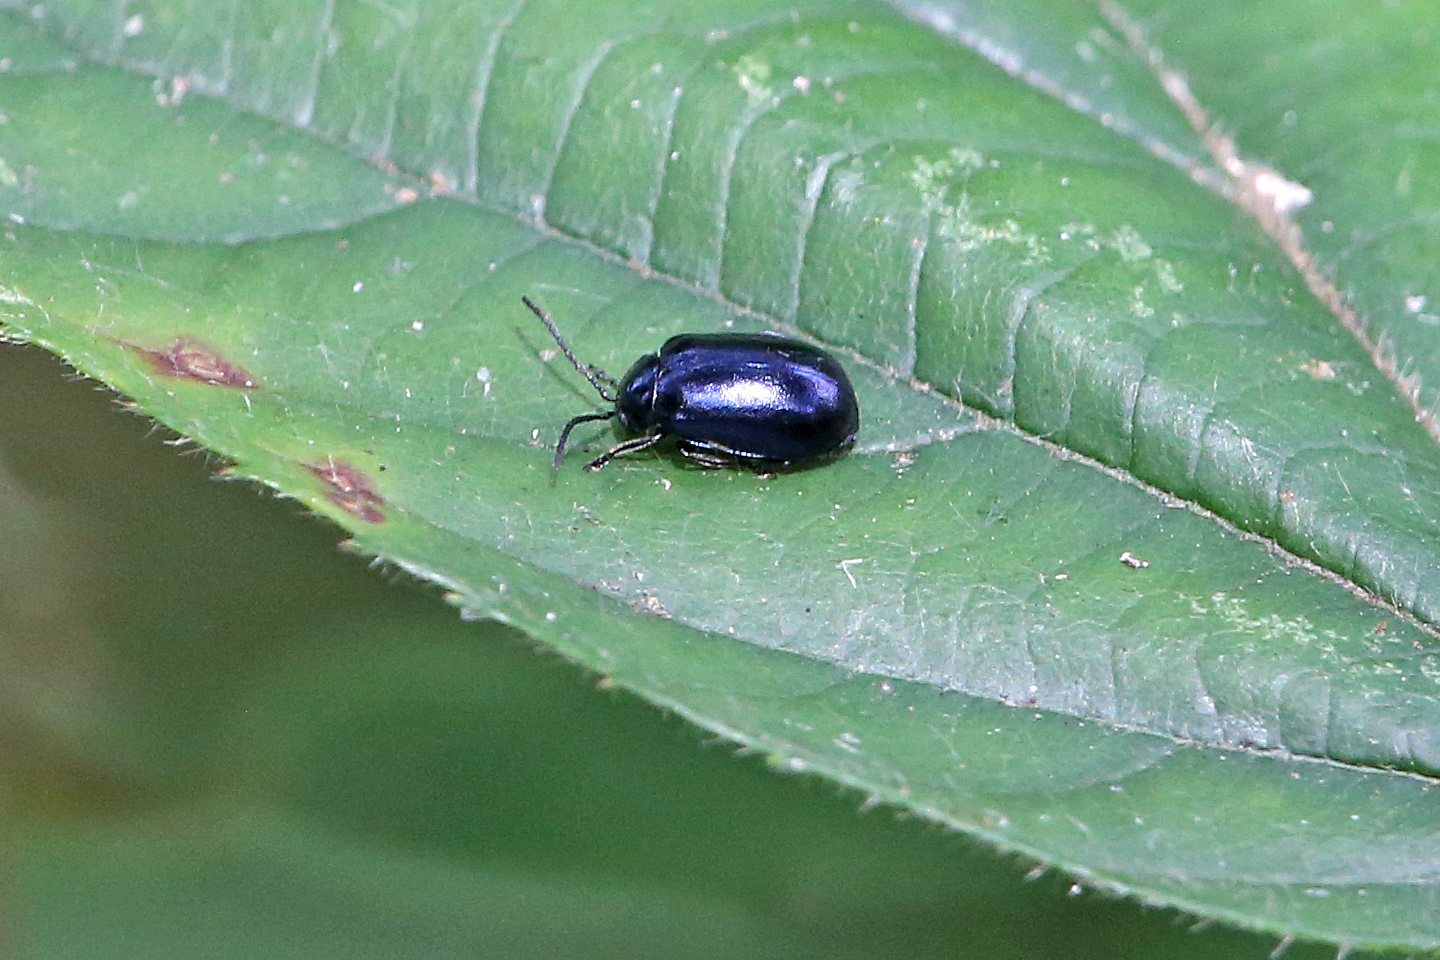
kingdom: Animalia
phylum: Arthropoda
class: Insecta
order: Coleoptera
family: Chrysomelidae
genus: Agelastica
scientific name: Agelastica alni
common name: Alder leaf beetle
